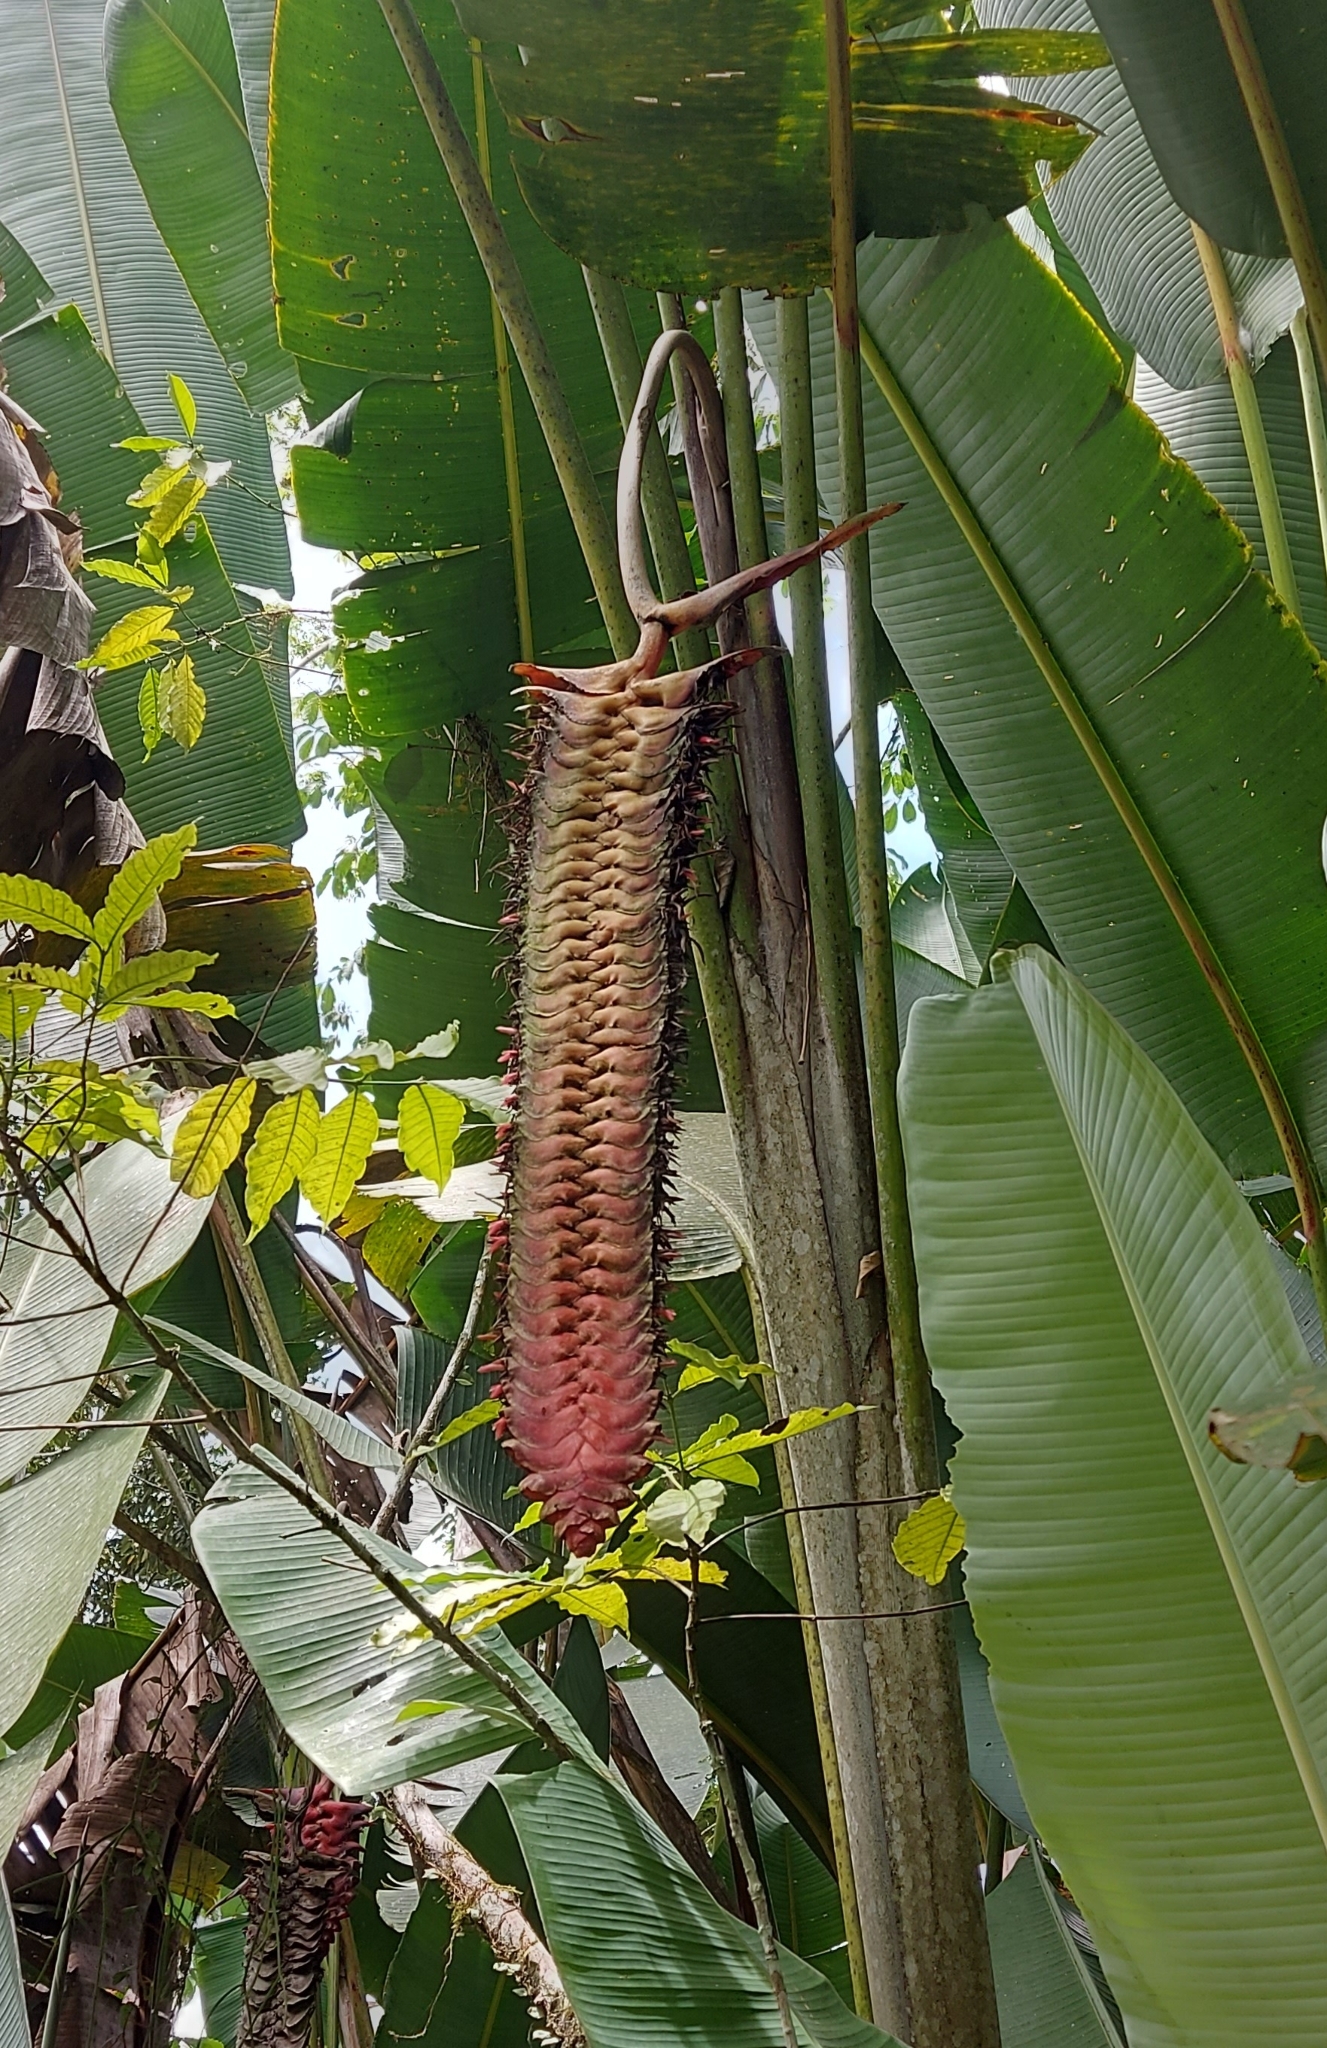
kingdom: Plantae
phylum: Tracheophyta
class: Liliopsida
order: Zingiberales
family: Heliconiaceae
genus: Heliconia
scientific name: Heliconia mariae
